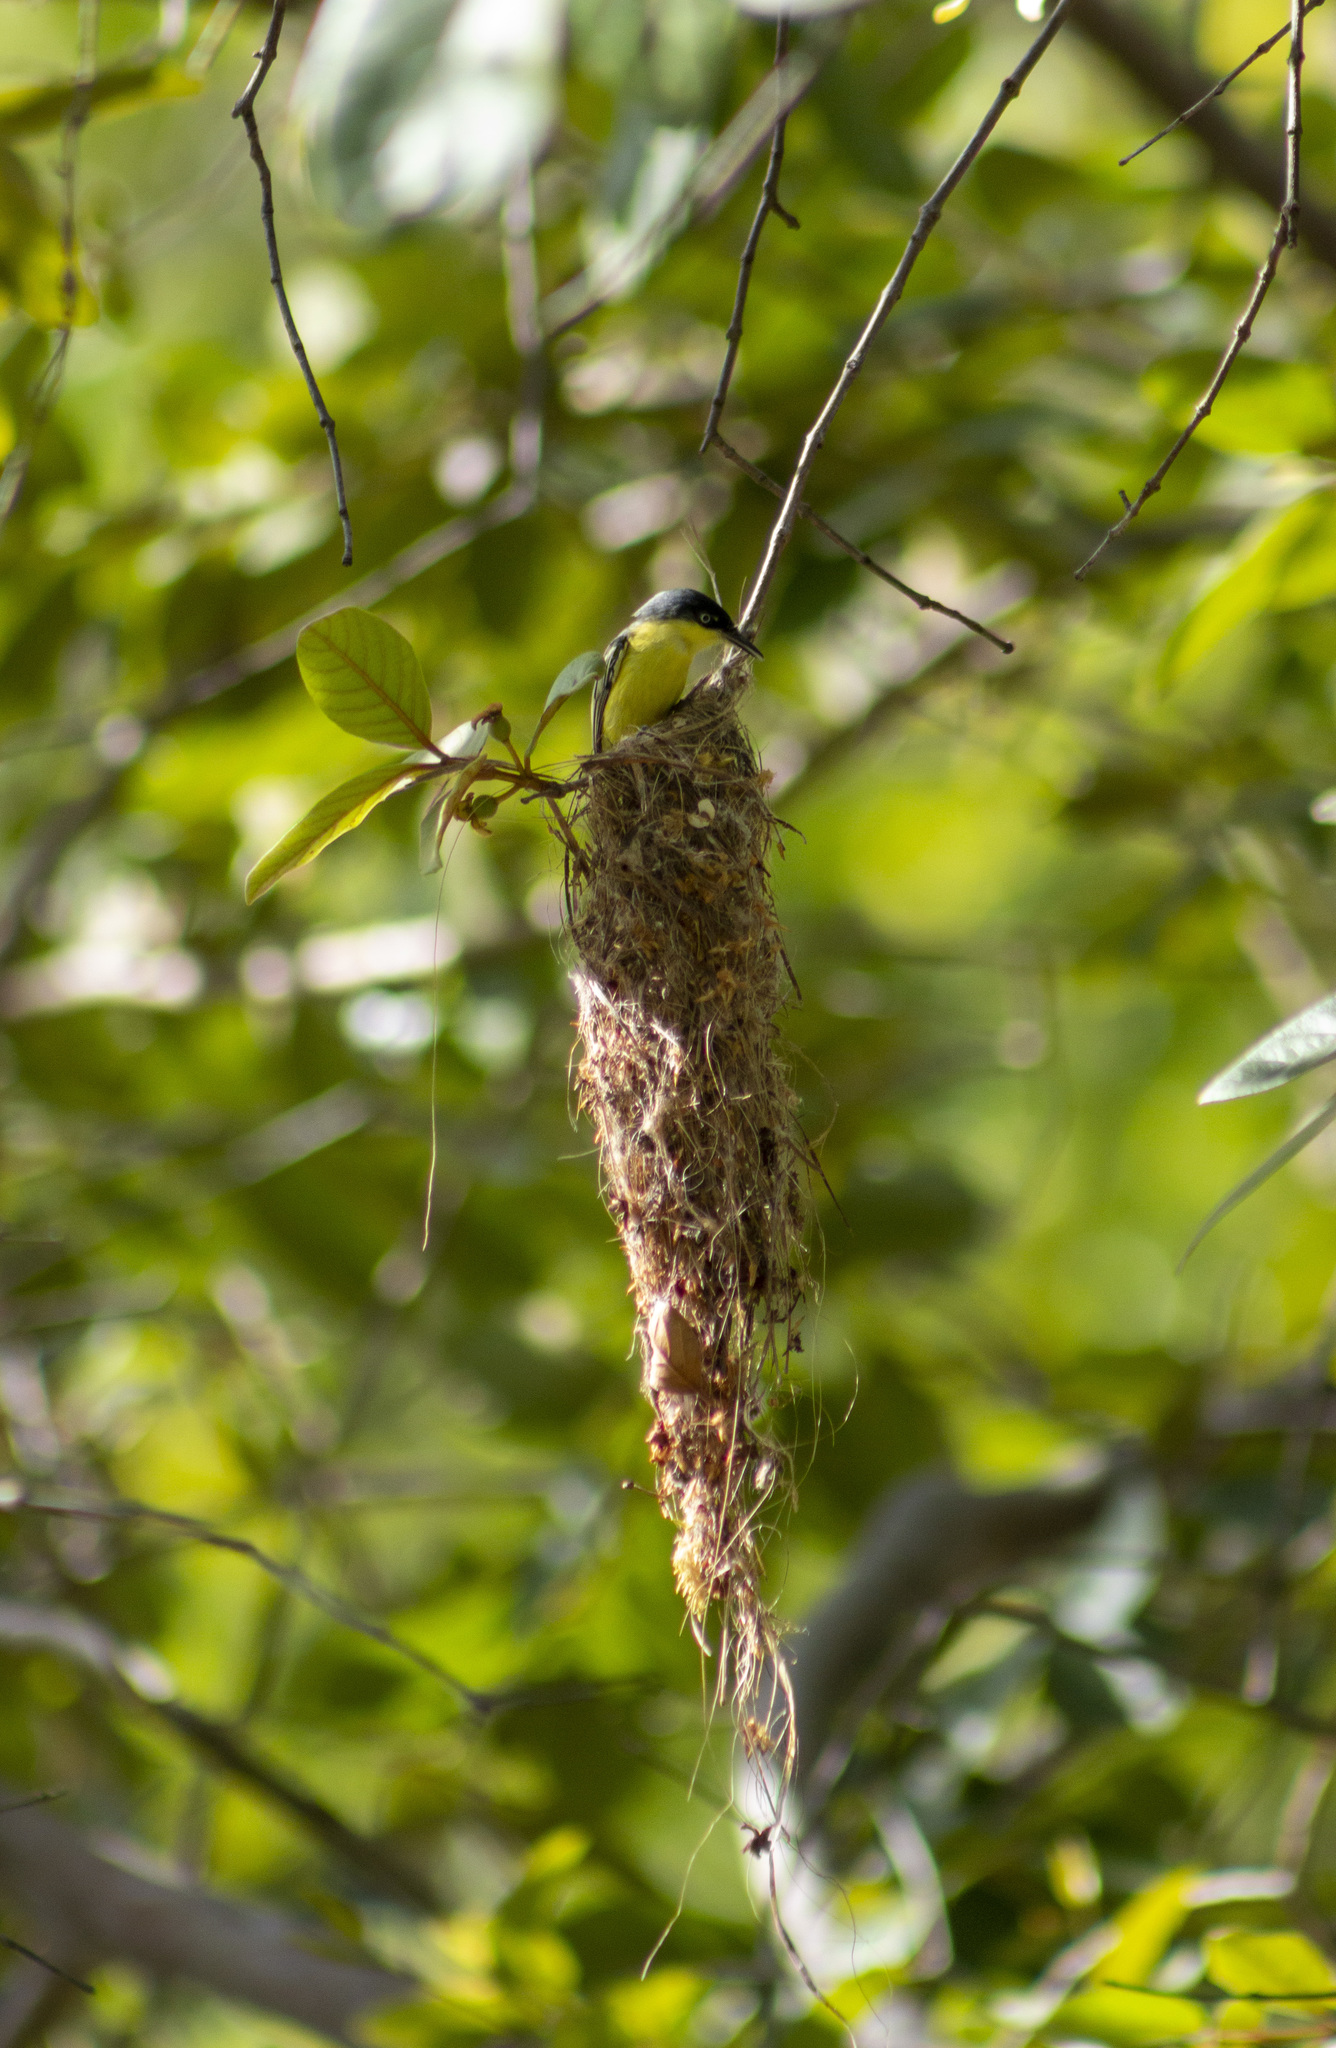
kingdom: Animalia
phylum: Chordata
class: Aves
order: Passeriformes
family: Tyrannidae
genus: Todirostrum
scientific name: Todirostrum cinereum
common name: Common tody-flycatcher
